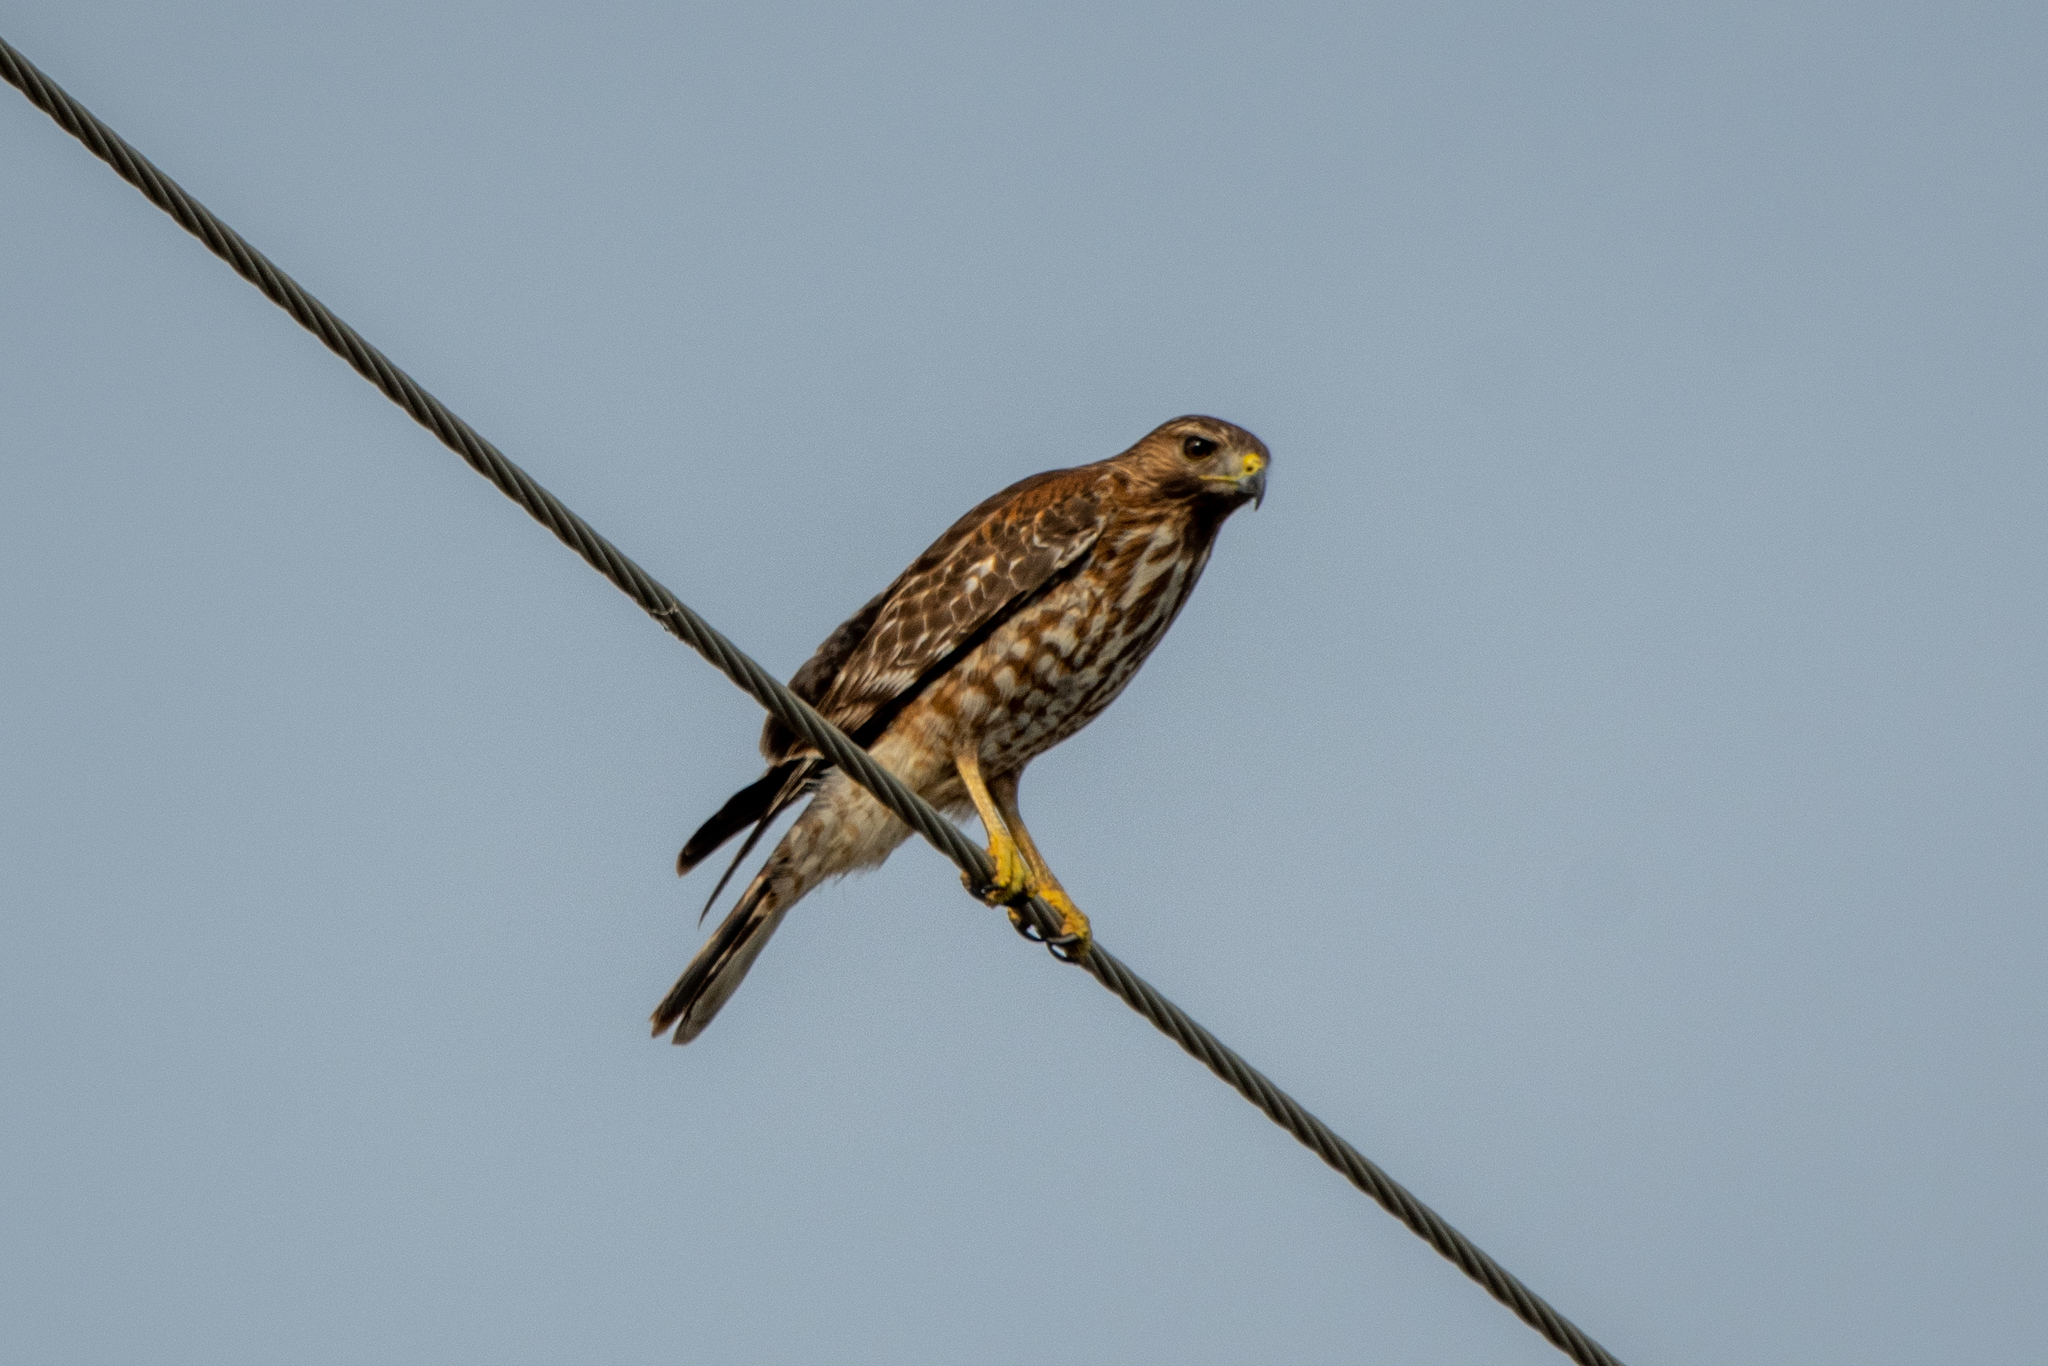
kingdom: Animalia
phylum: Chordata
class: Aves
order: Accipitriformes
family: Accipitridae
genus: Buteo
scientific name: Buteo lineatus
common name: Red-shouldered hawk
